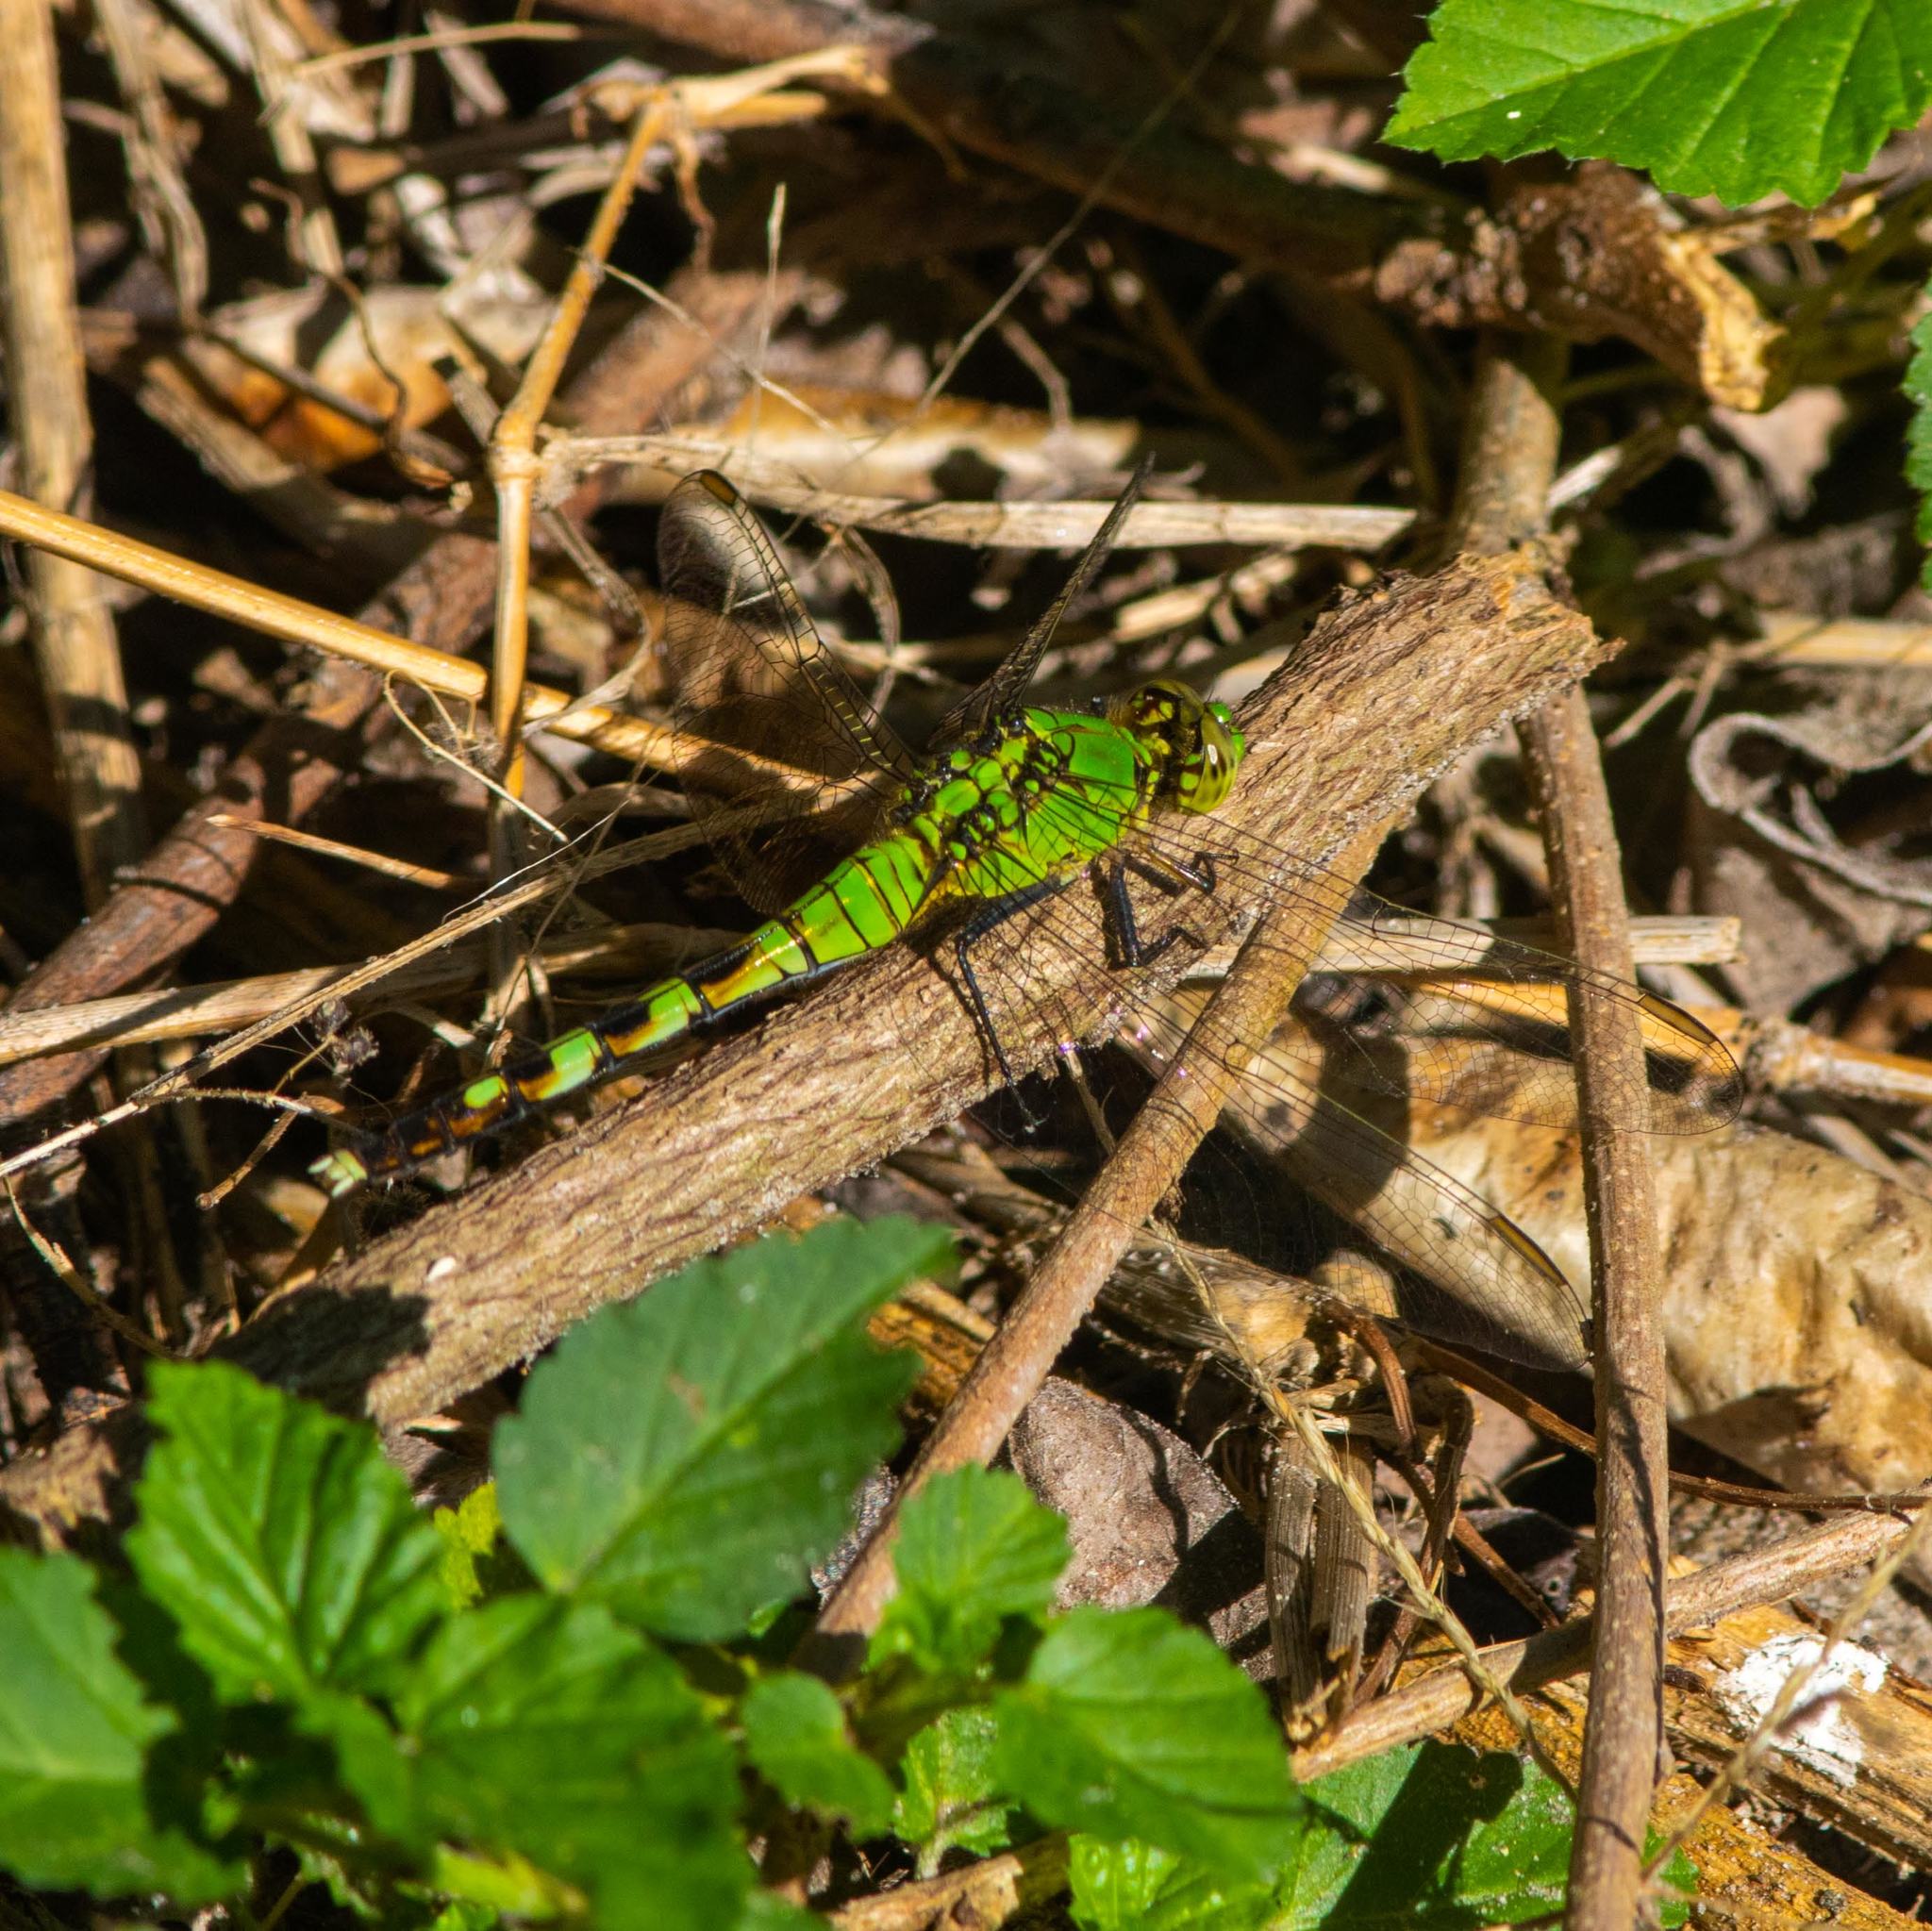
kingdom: Animalia
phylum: Arthropoda
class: Insecta
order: Odonata
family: Libellulidae
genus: Erythemis
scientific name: Erythemis simplicicollis
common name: Eastern pondhawk
